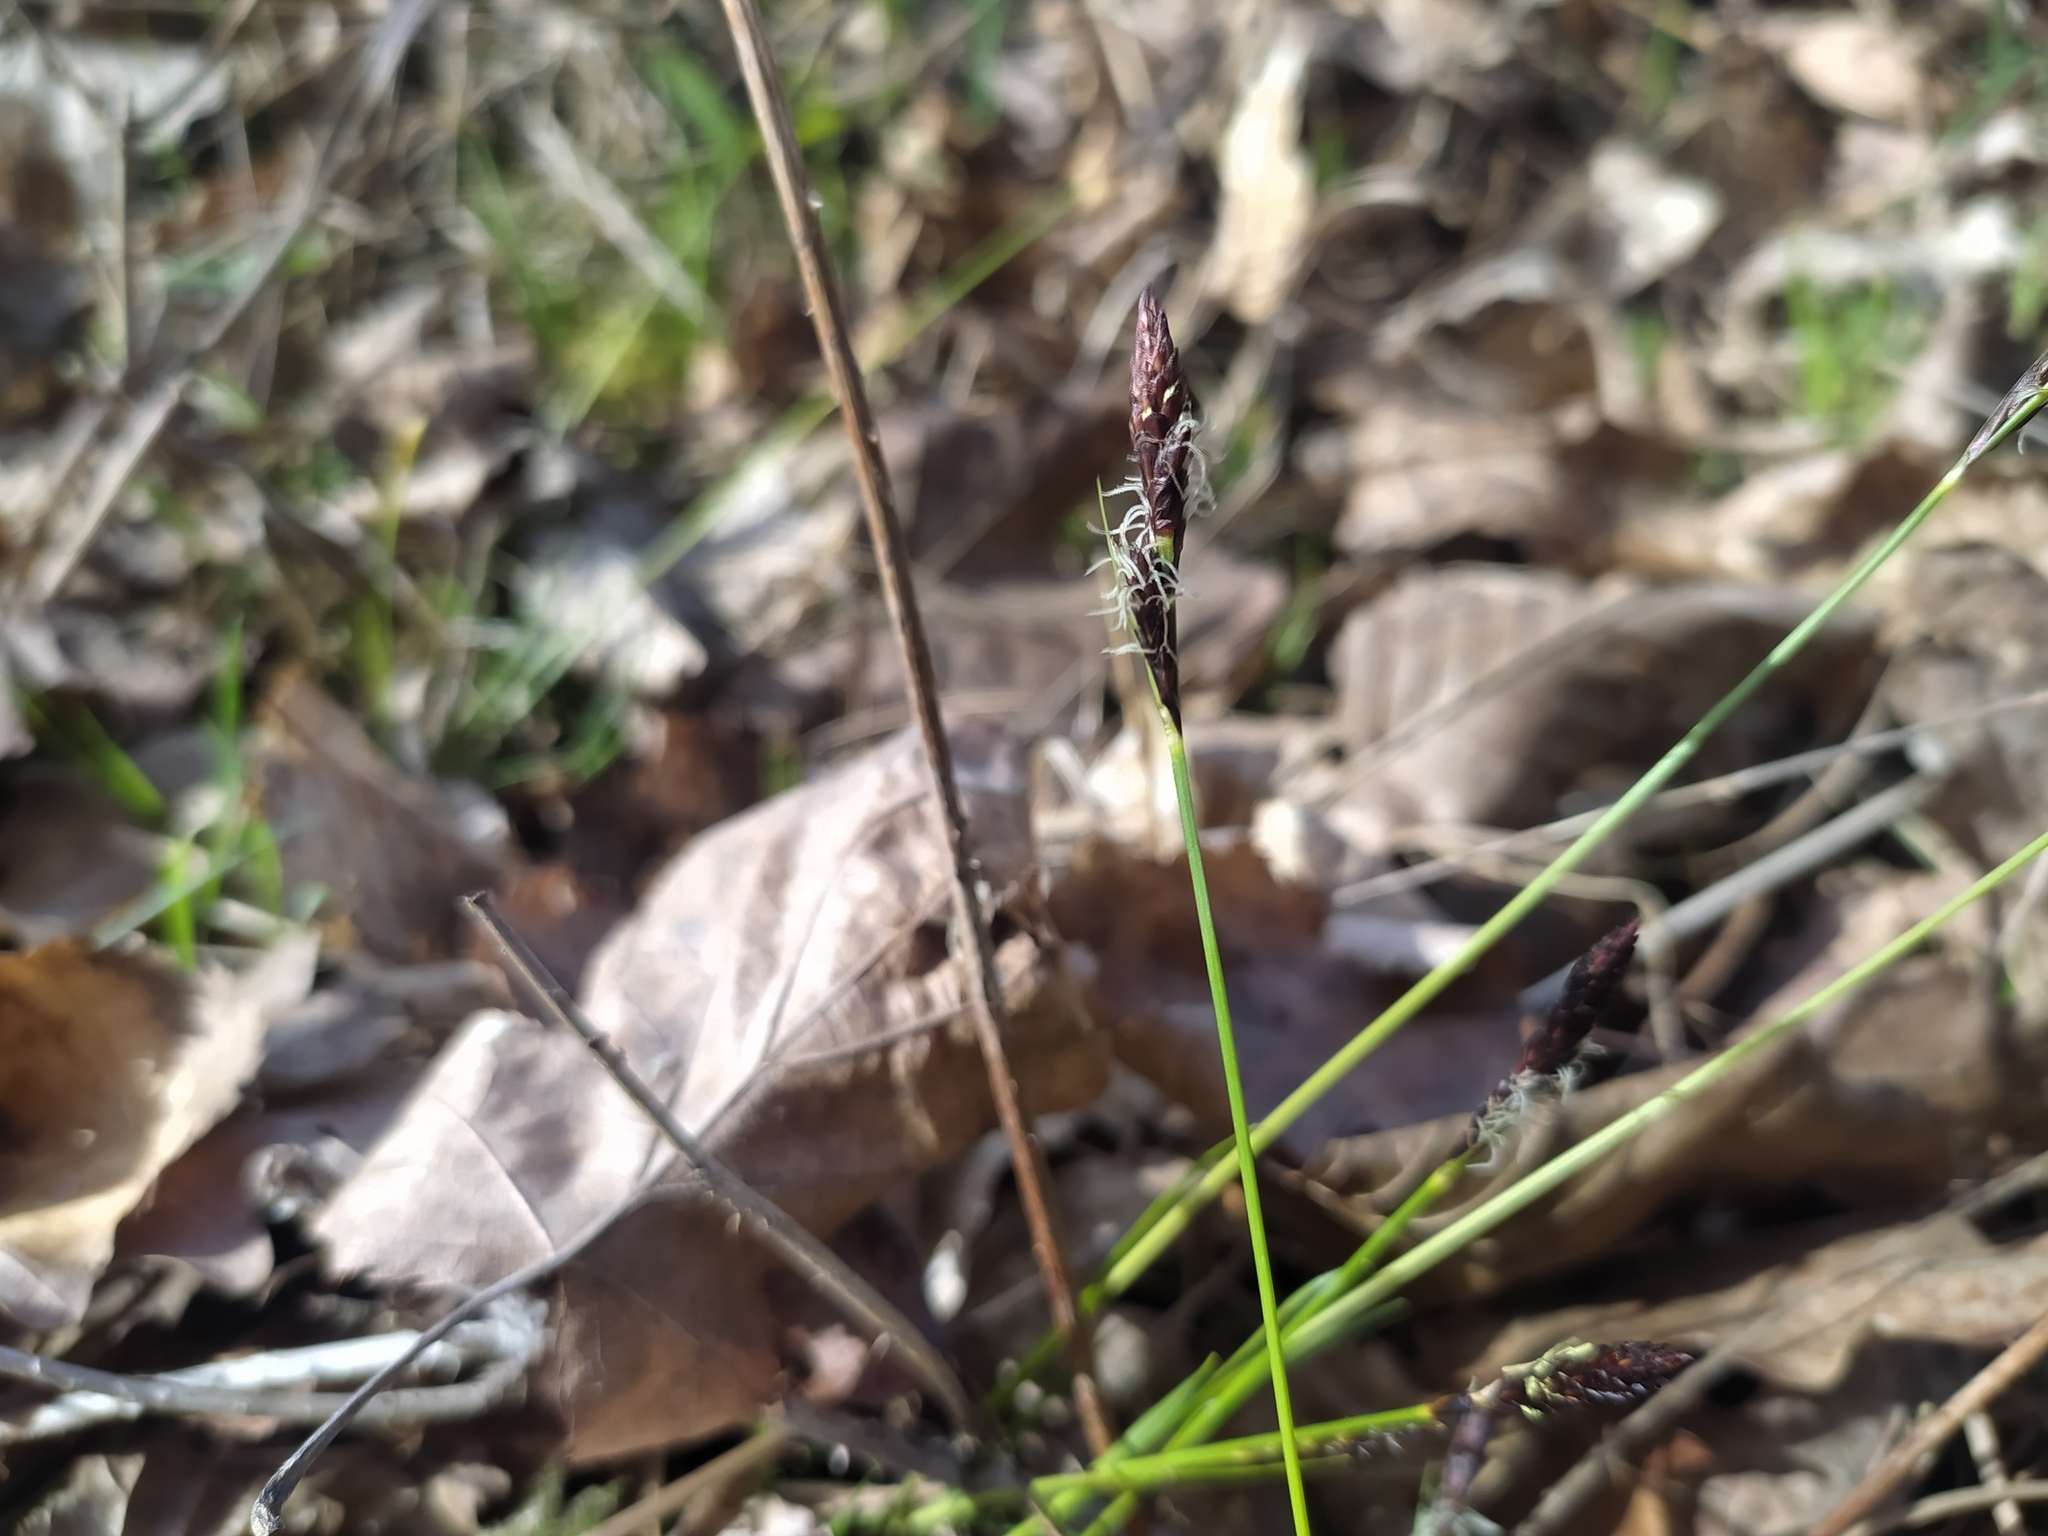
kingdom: Plantae
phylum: Tracheophyta
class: Liliopsida
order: Poales
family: Cyperaceae
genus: Carex
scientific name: Carex montana
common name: Soft-leaved sedge
